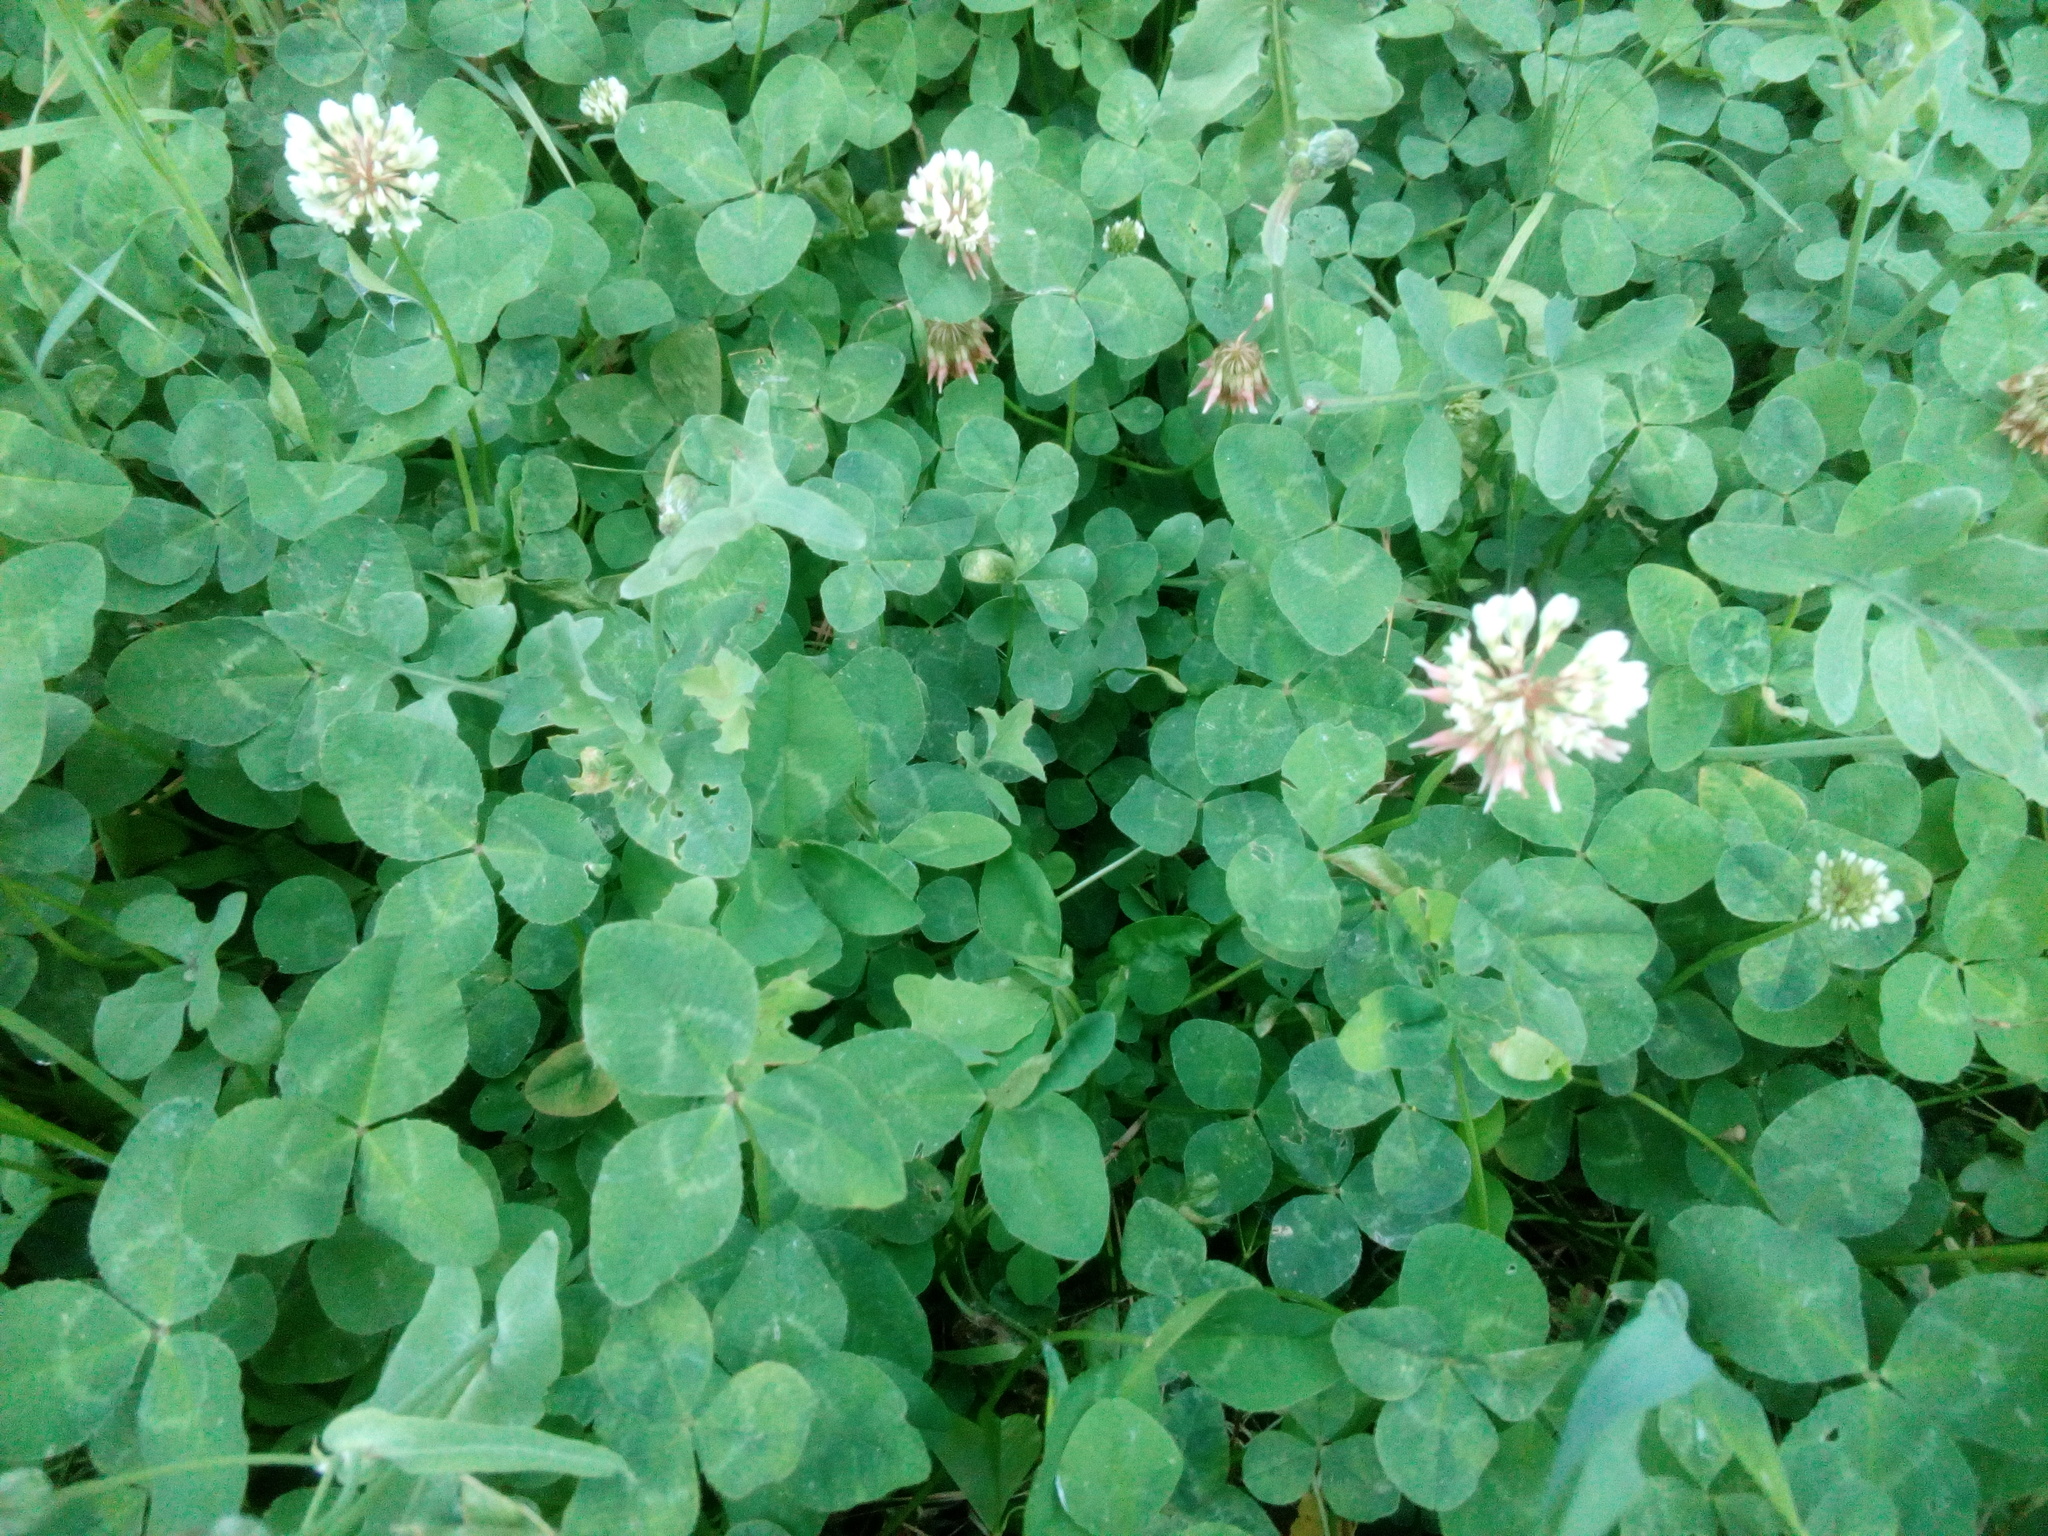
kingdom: Plantae
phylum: Tracheophyta
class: Magnoliopsida
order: Fabales
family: Fabaceae
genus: Trifolium
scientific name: Trifolium repens
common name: White clover
